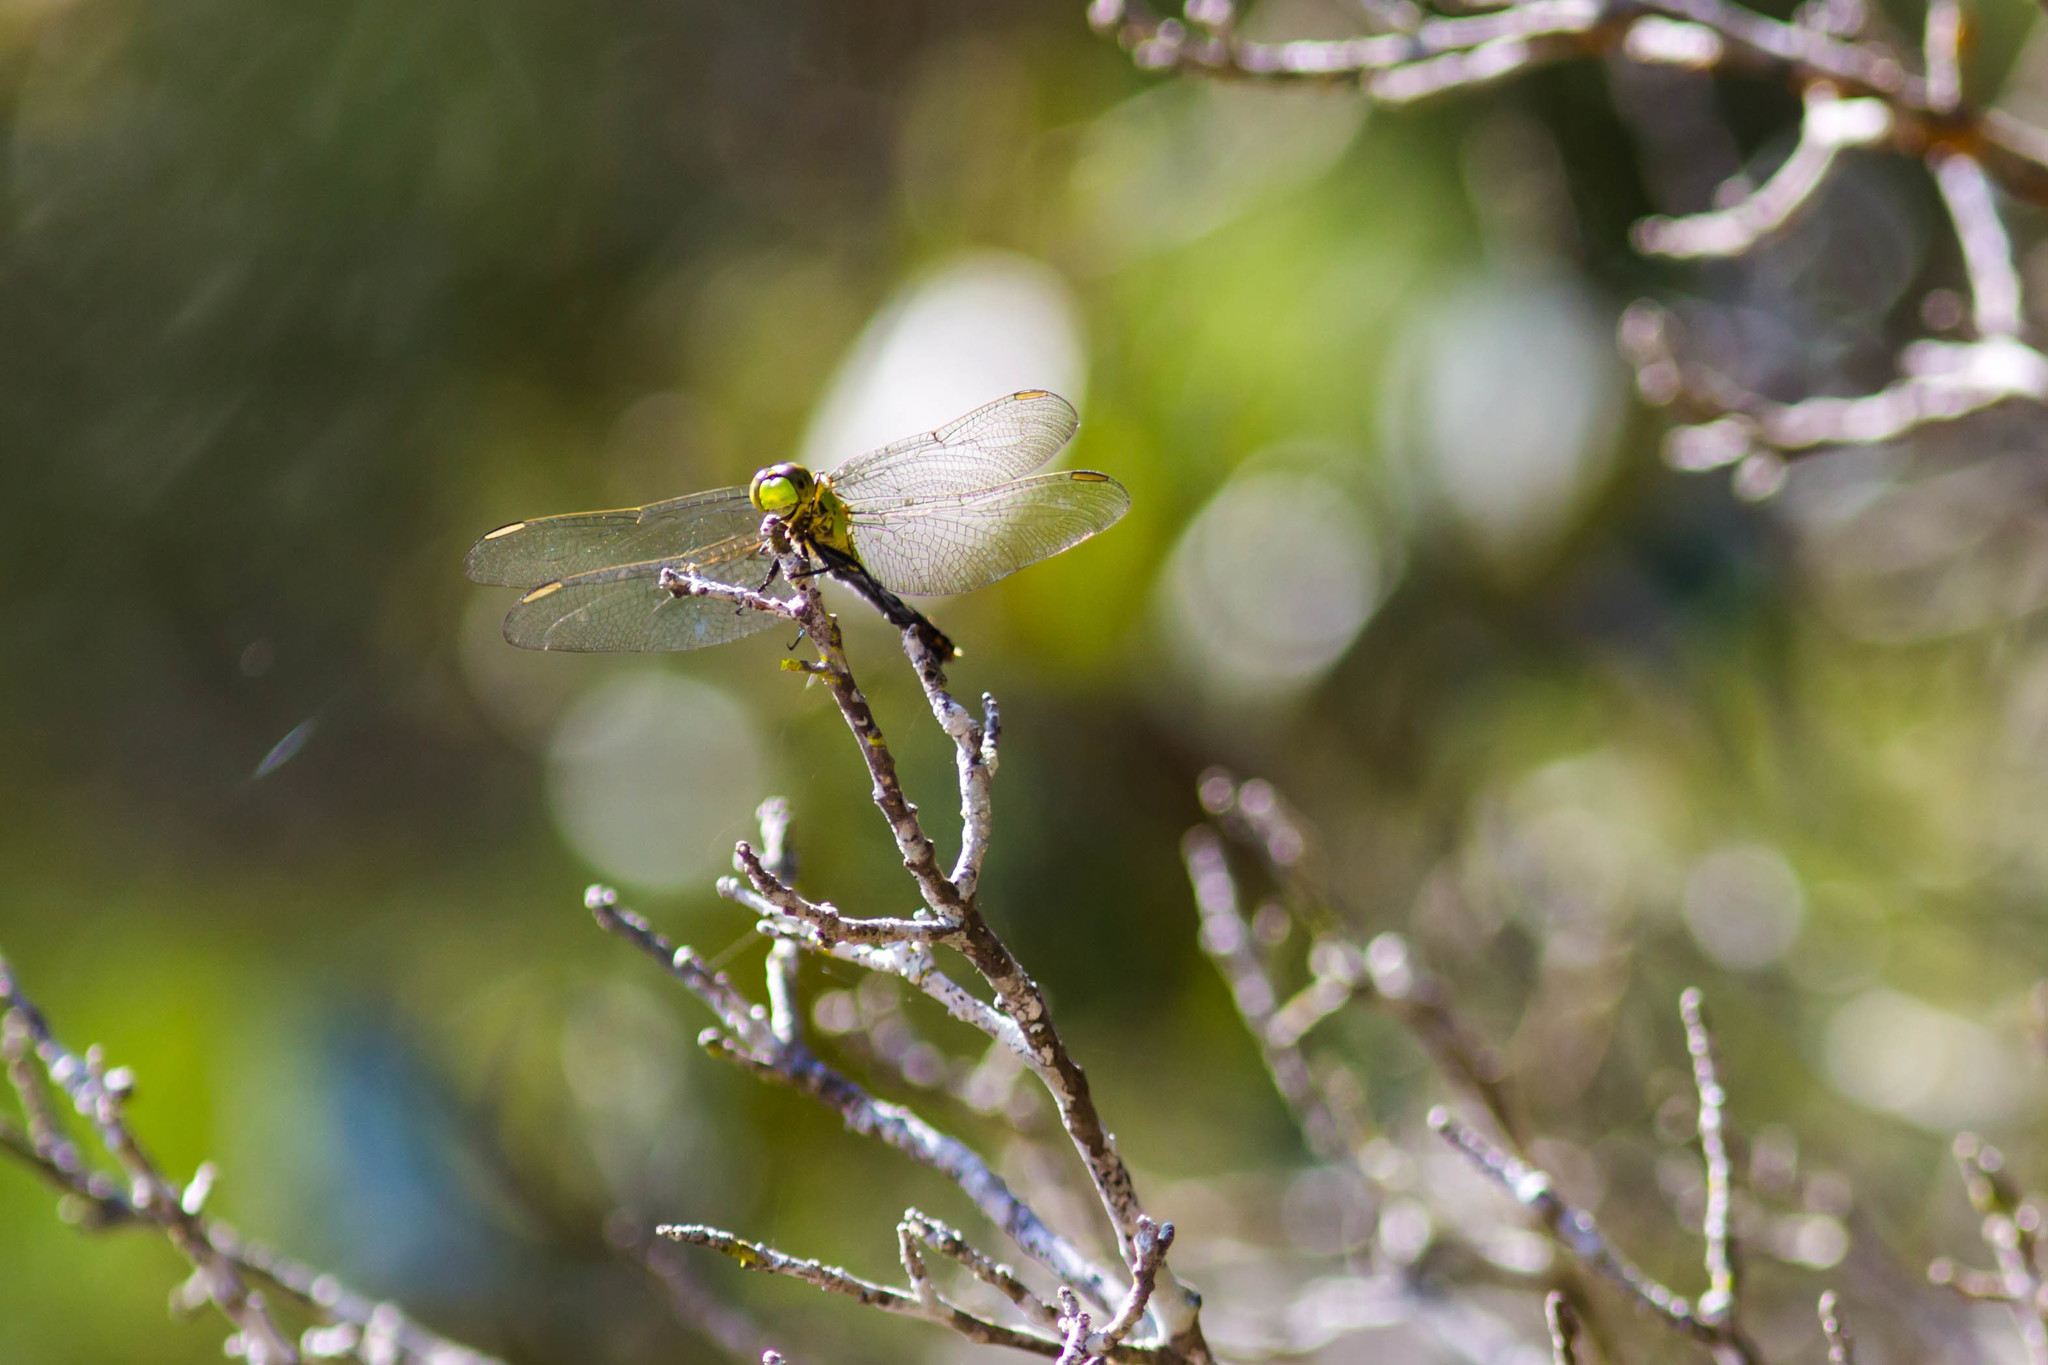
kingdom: Animalia
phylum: Arthropoda
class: Insecta
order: Odonata
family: Libellulidae
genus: Erythemis
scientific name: Erythemis simplicicollis
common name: Eastern pondhawk
